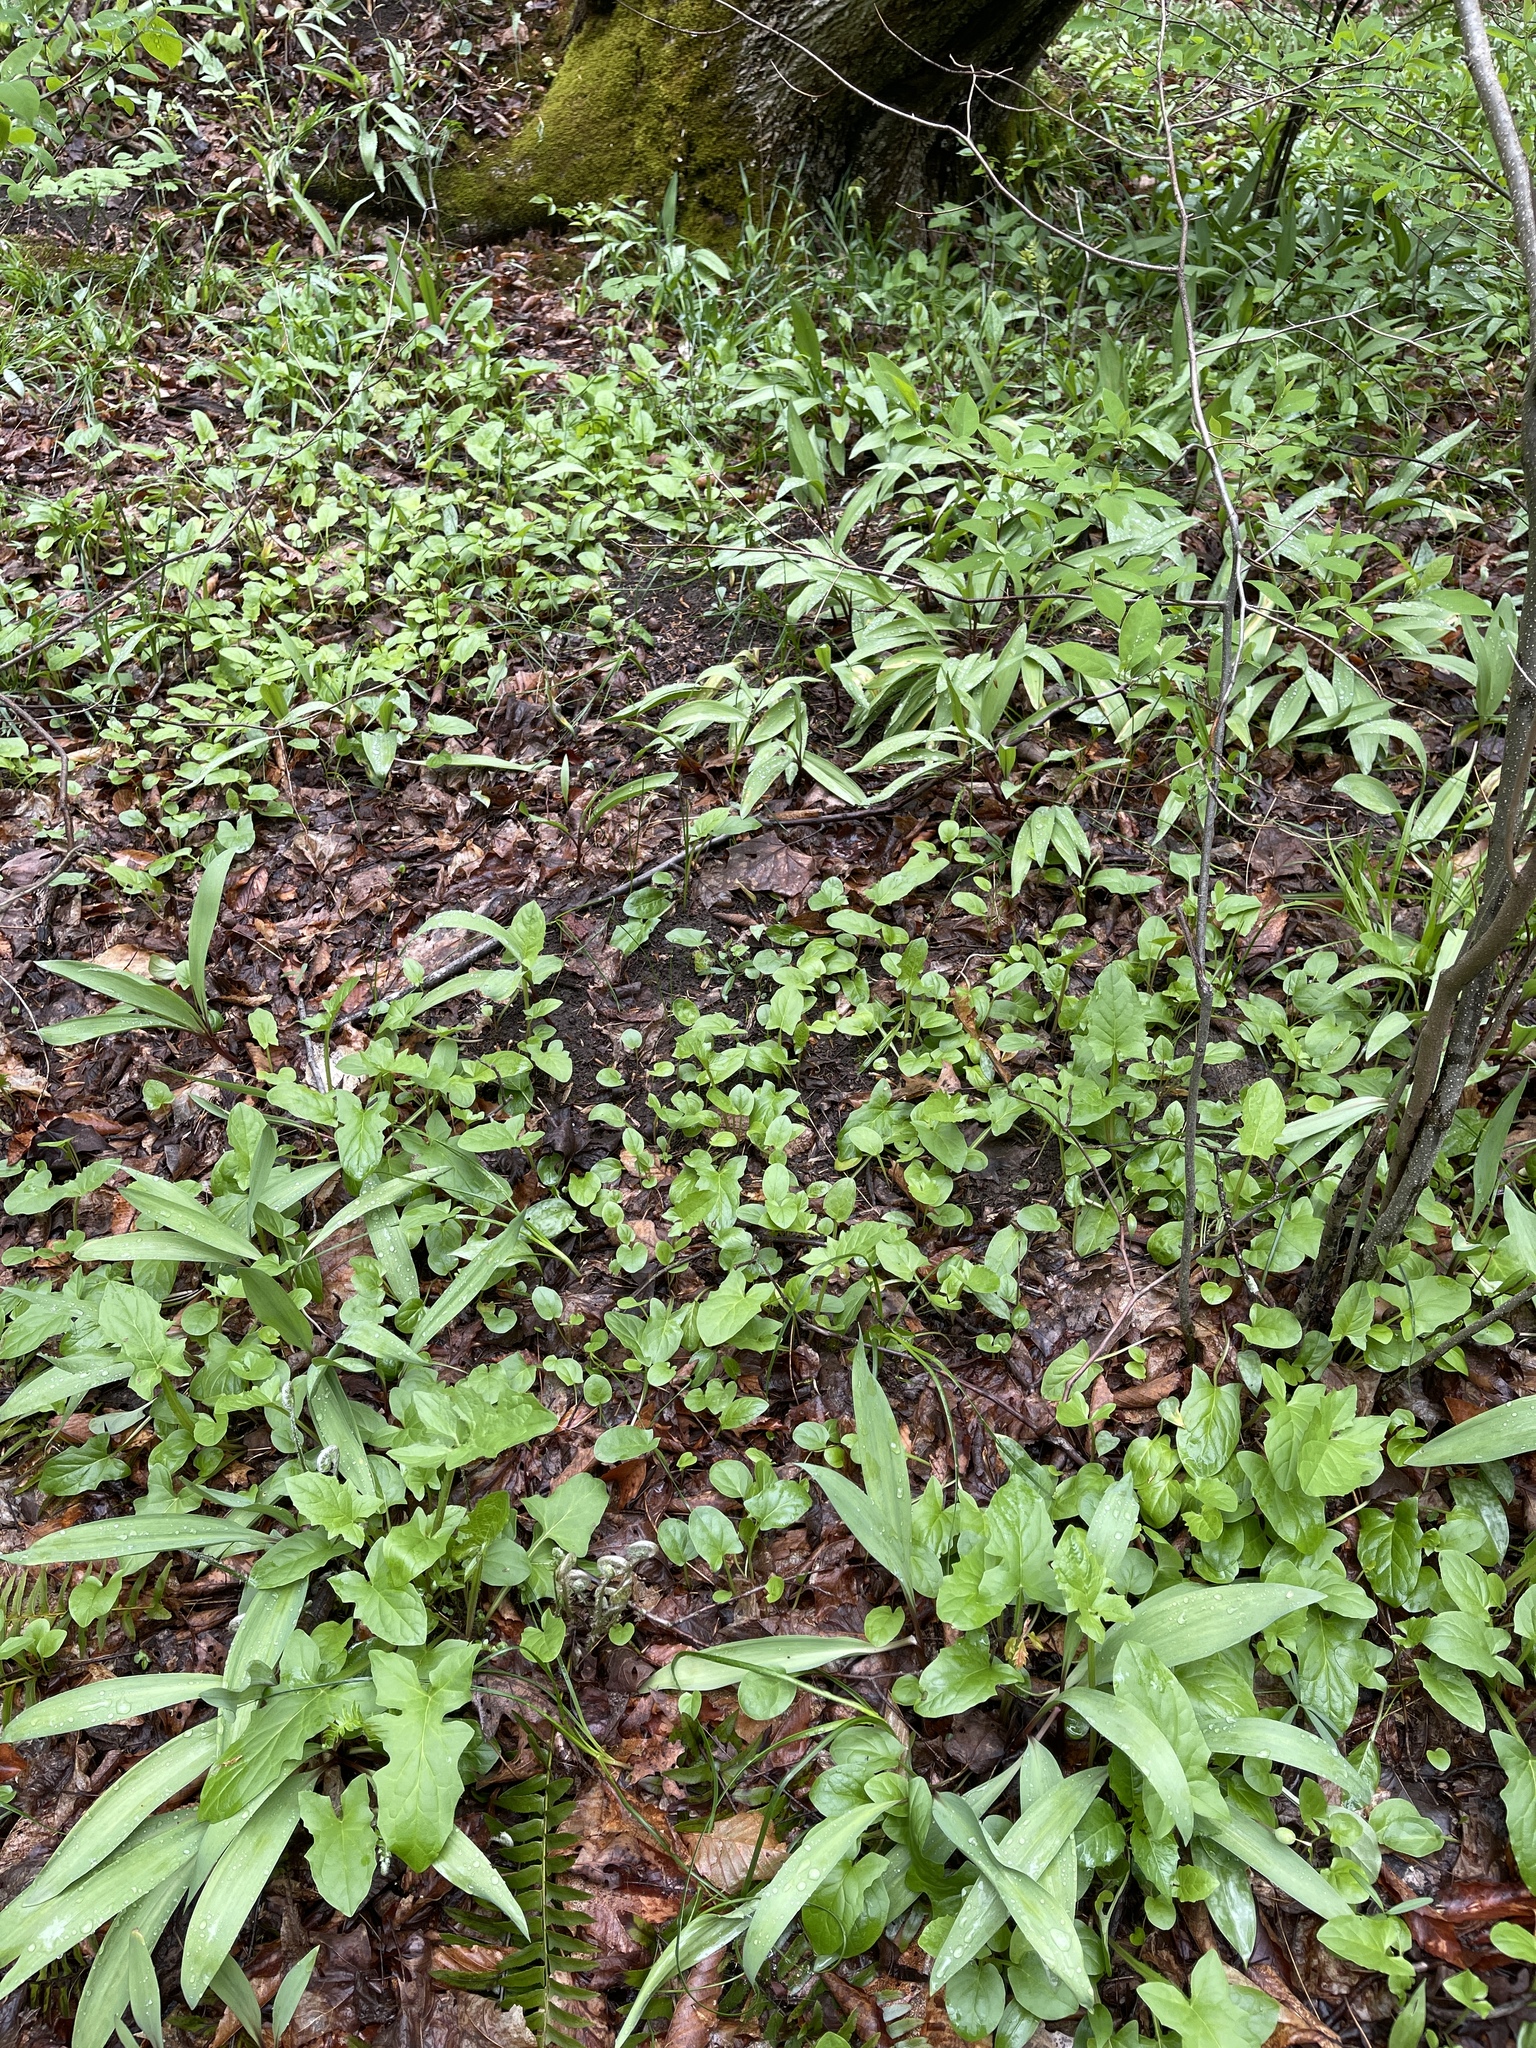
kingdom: Plantae
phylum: Tracheophyta
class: Magnoliopsida
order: Asterales
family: Asteraceae
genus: Nabalus
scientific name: Nabalus crepidineus
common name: Nodding rattlesnakeroot
